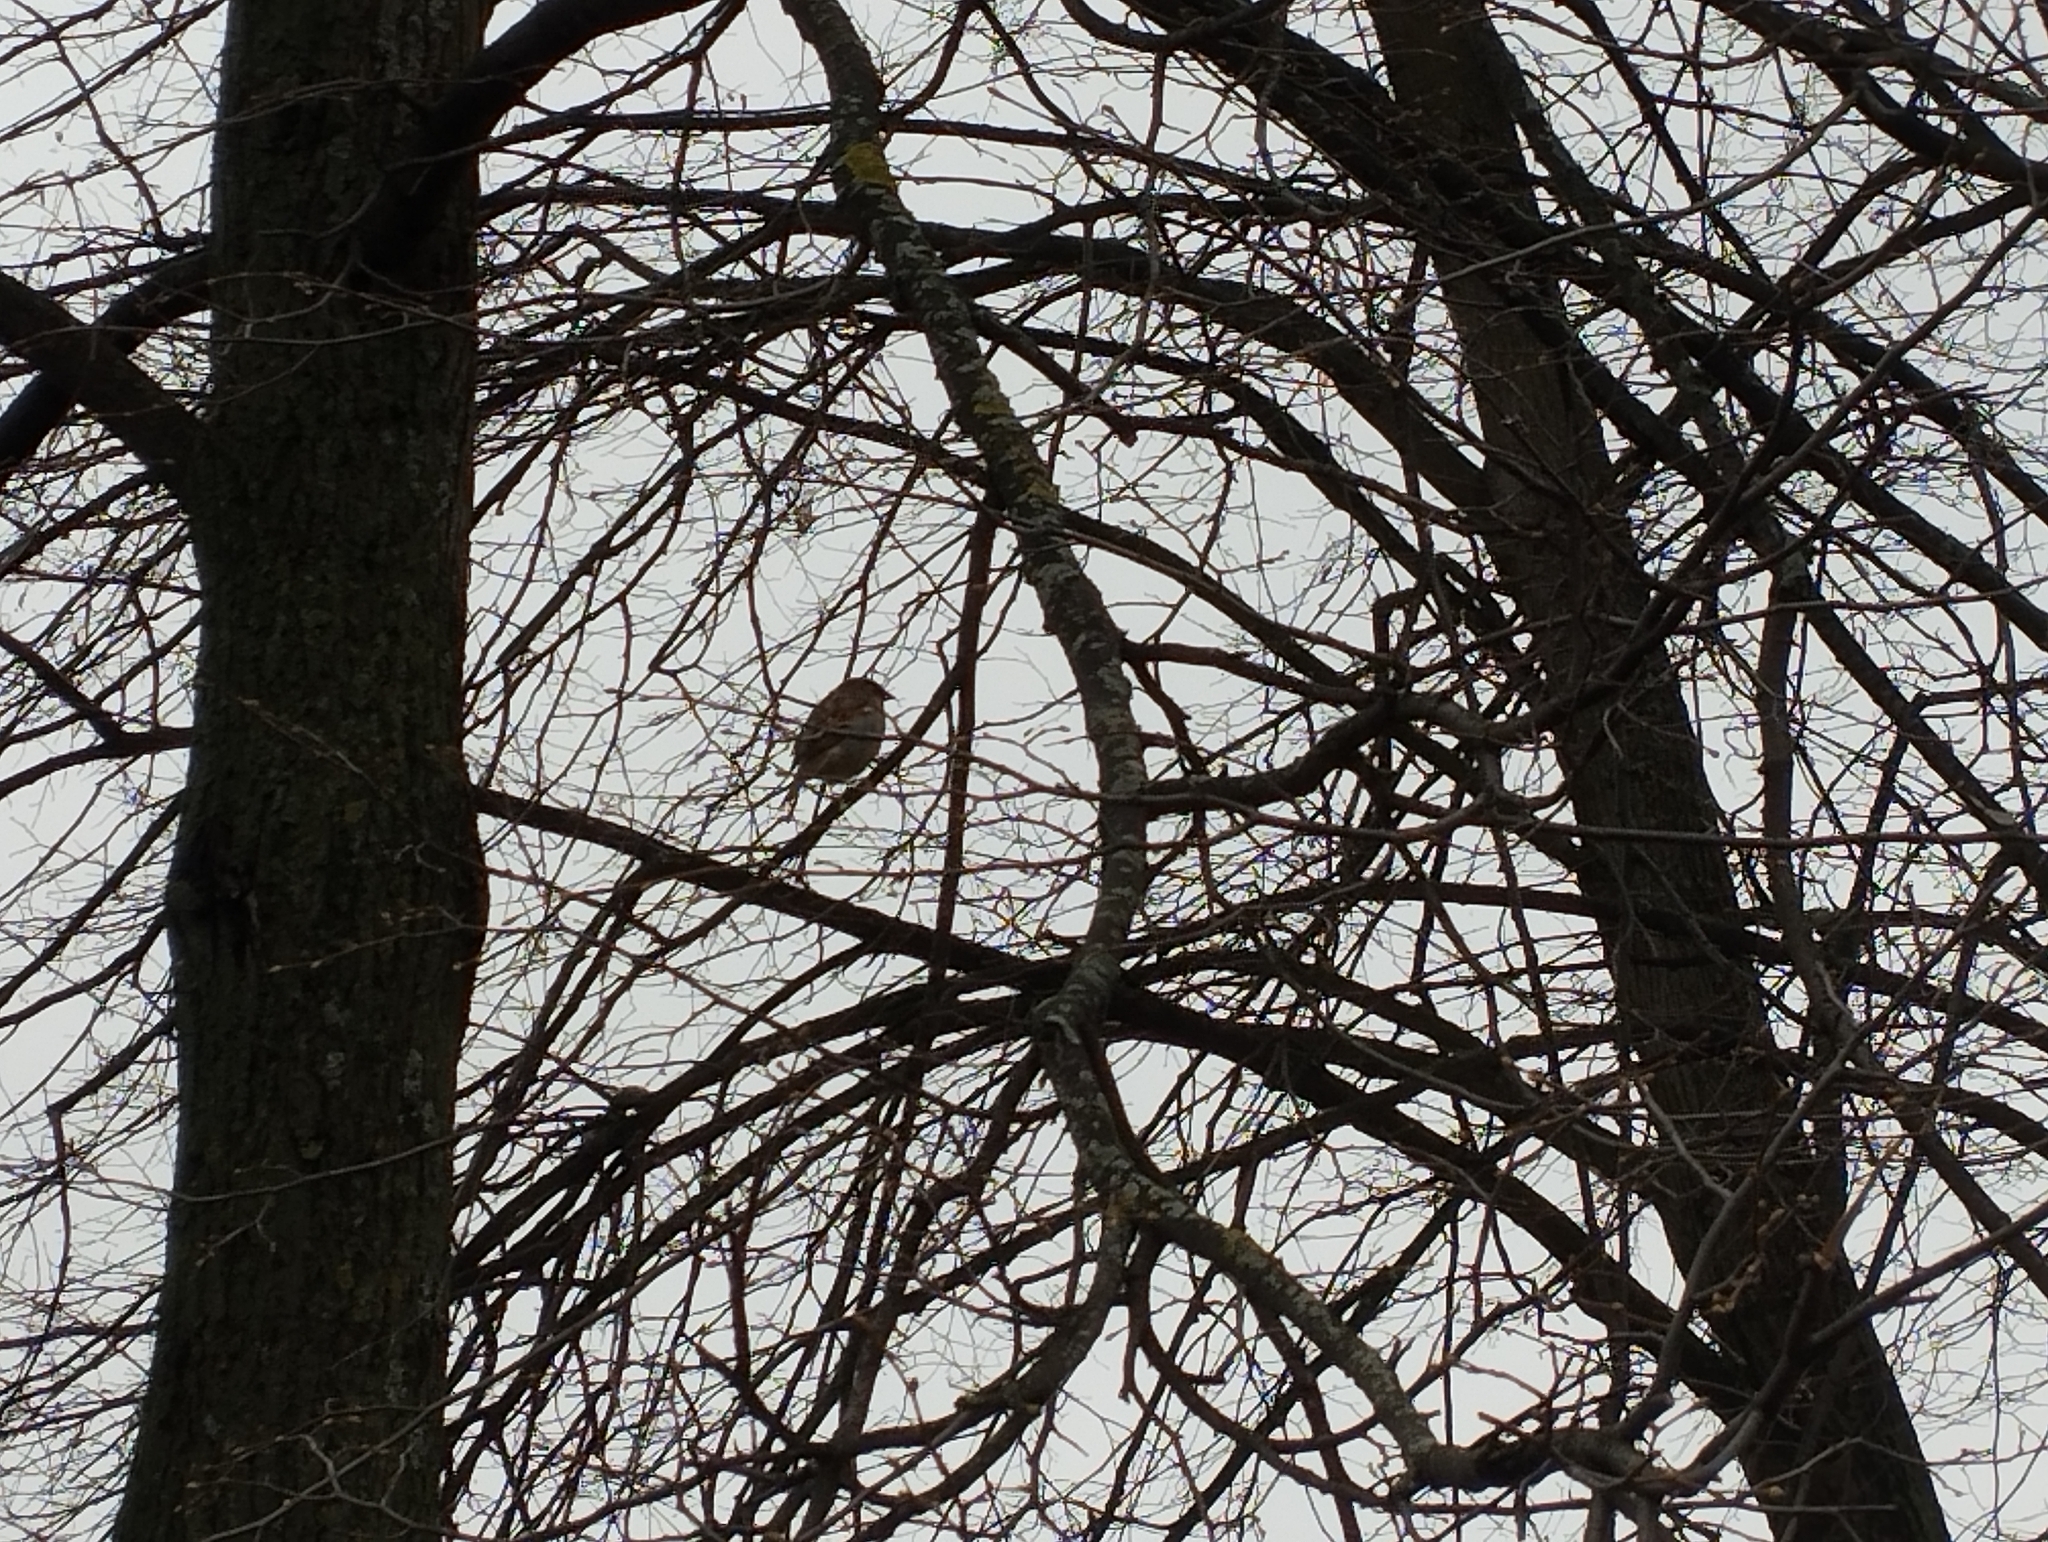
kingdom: Animalia
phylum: Chordata
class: Aves
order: Passeriformes
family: Passeridae
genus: Passer
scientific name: Passer domesticus
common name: House sparrow
